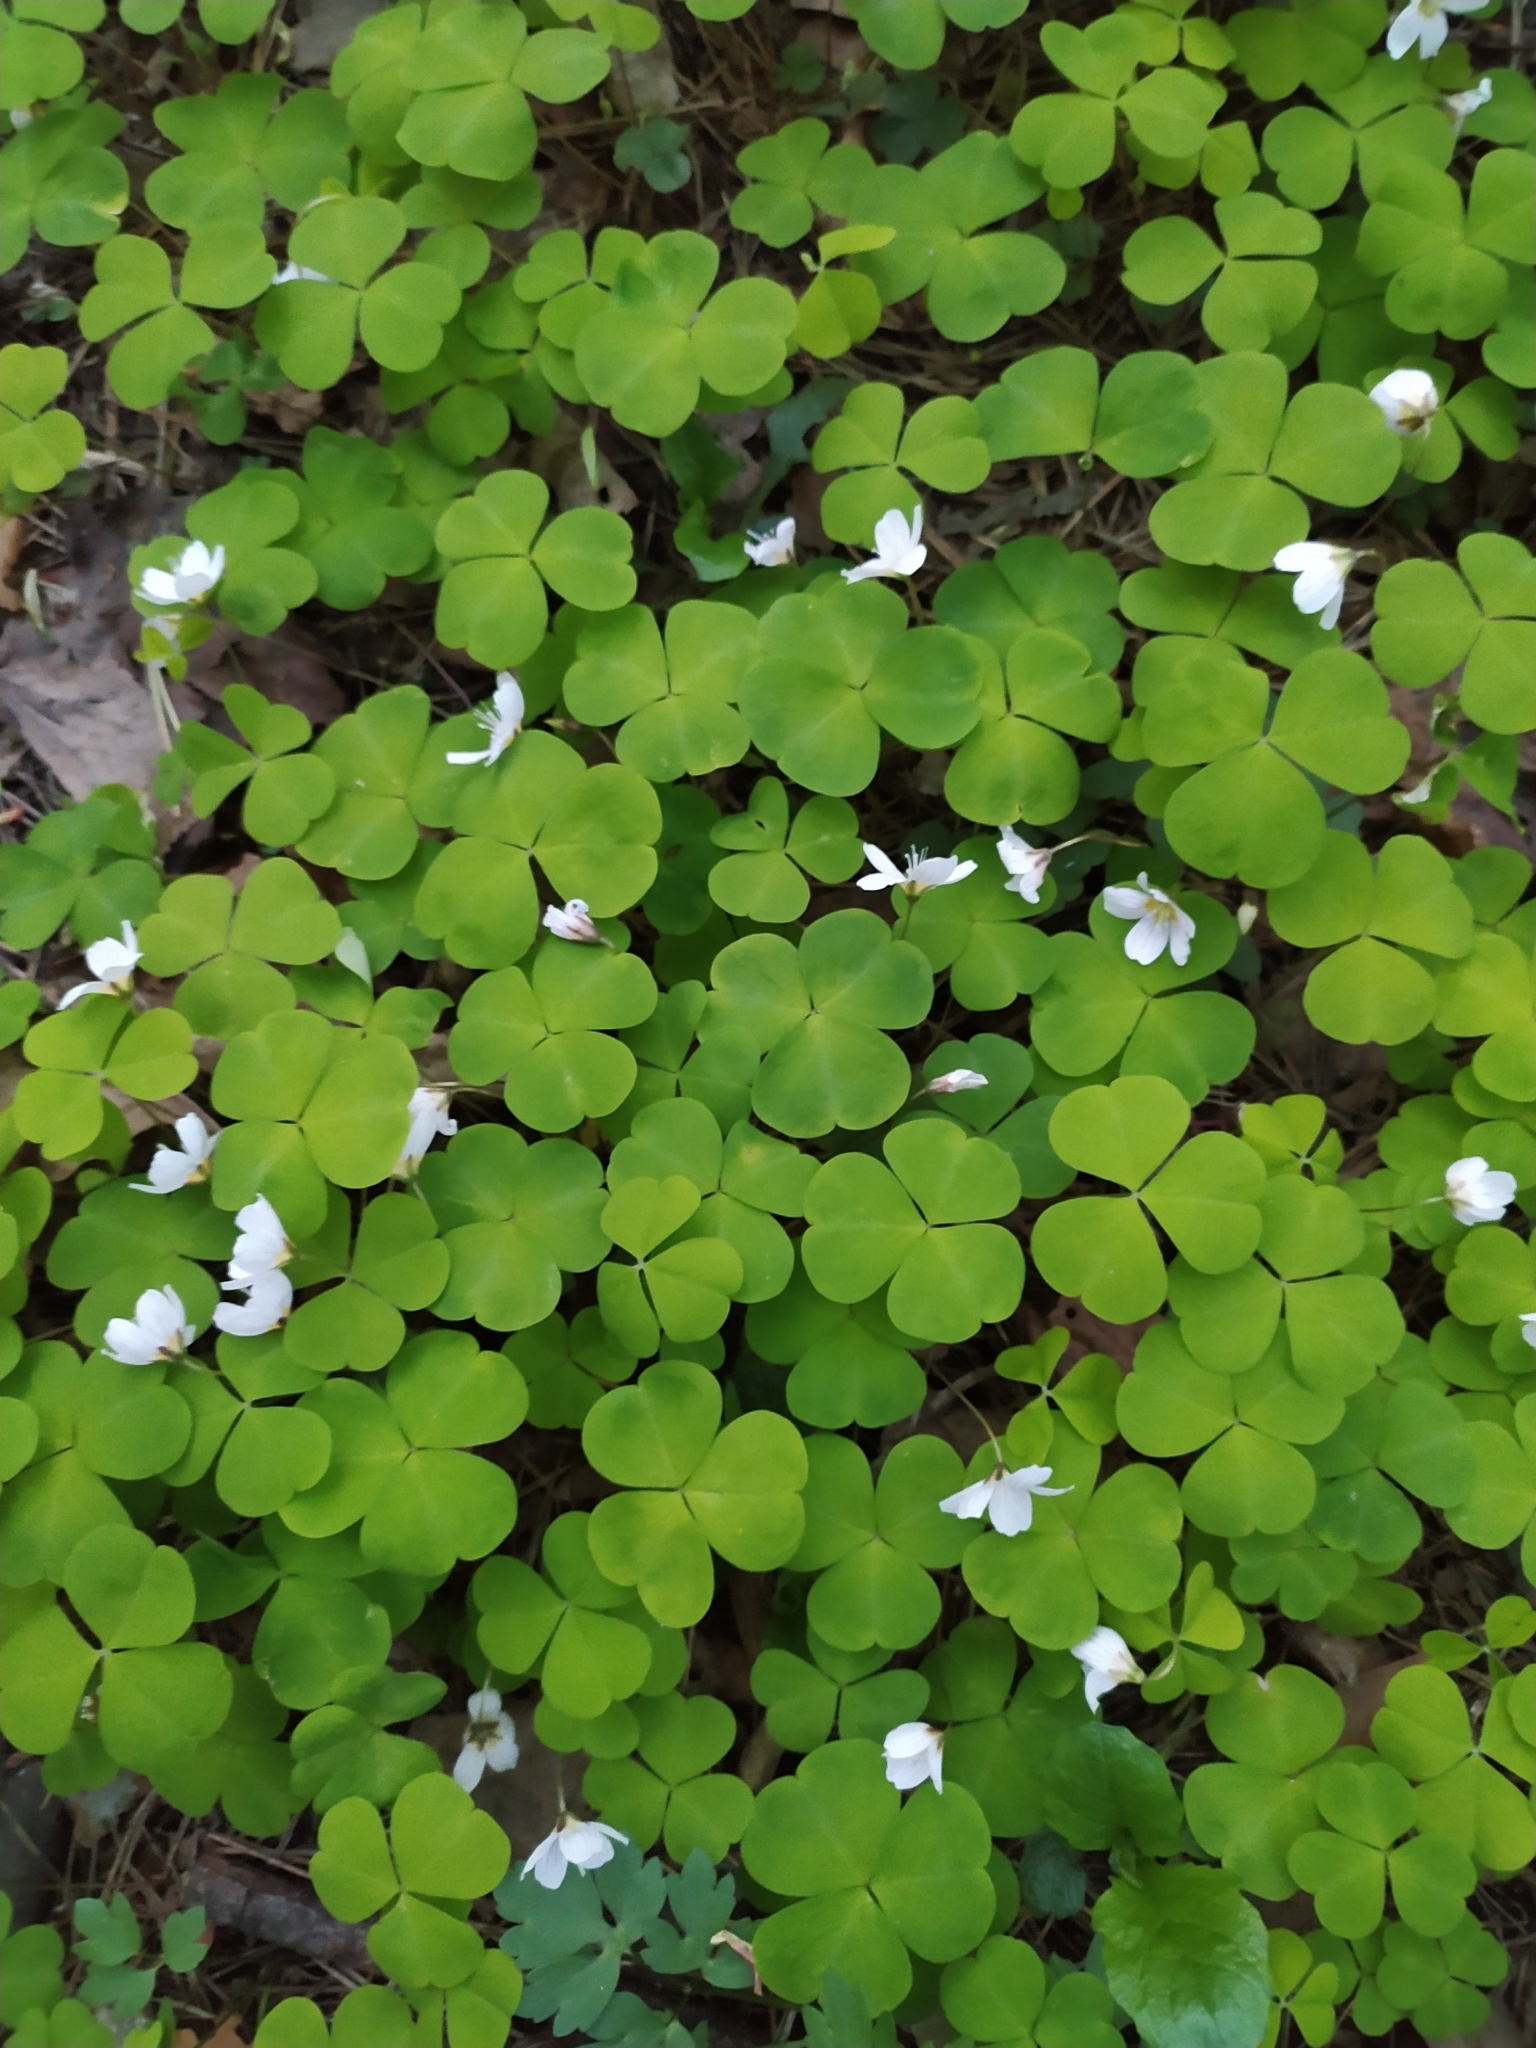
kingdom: Plantae
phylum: Tracheophyta
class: Magnoliopsida
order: Oxalidales
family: Oxalidaceae
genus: Oxalis
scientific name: Oxalis acetosella
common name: Wood-sorrel
